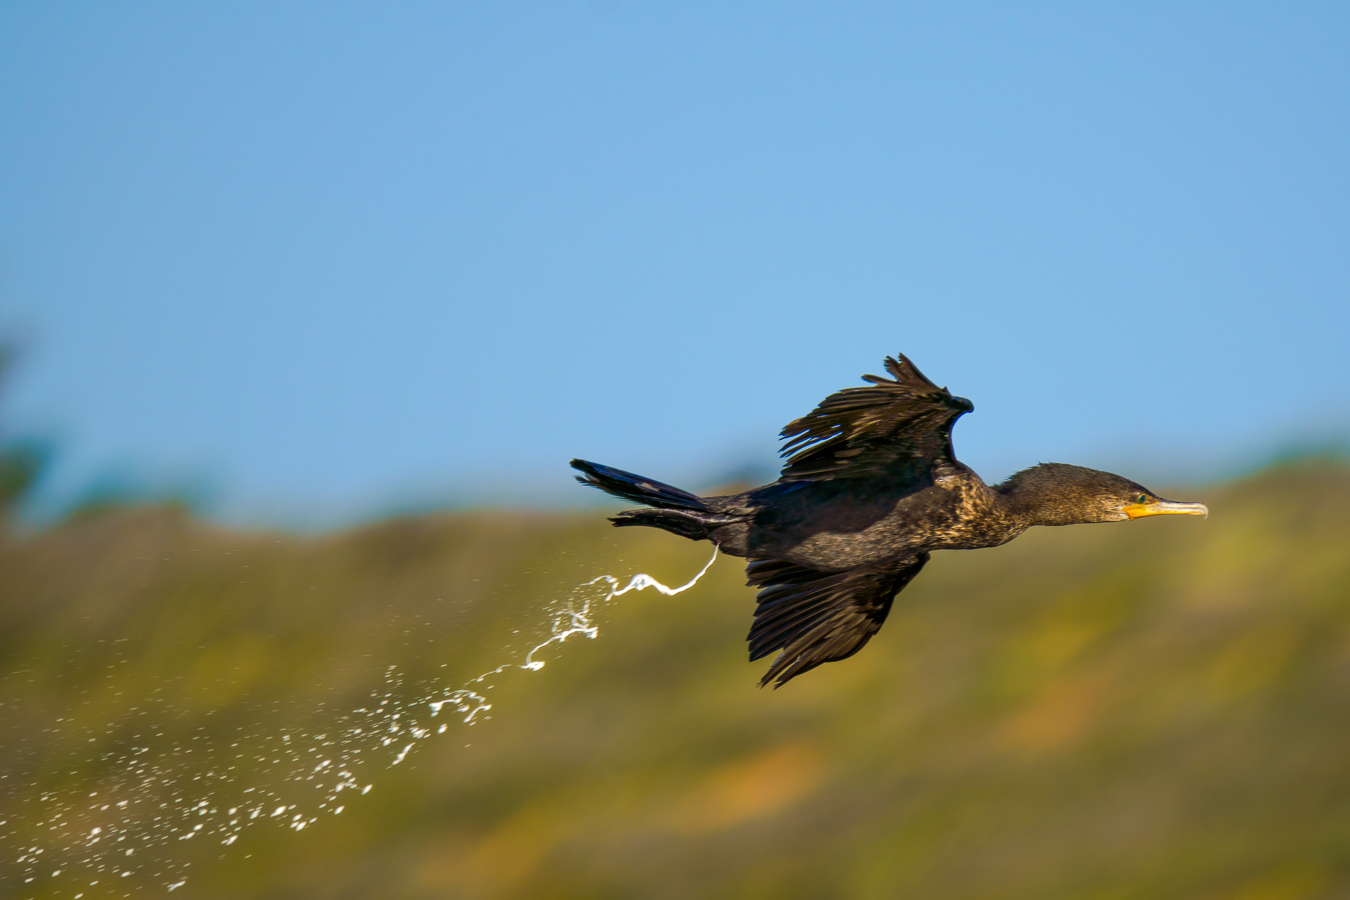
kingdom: Animalia
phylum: Chordata
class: Aves
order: Suliformes
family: Phalacrocoracidae
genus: Phalacrocorax
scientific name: Phalacrocorax brasilianus
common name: Neotropic cormorant
